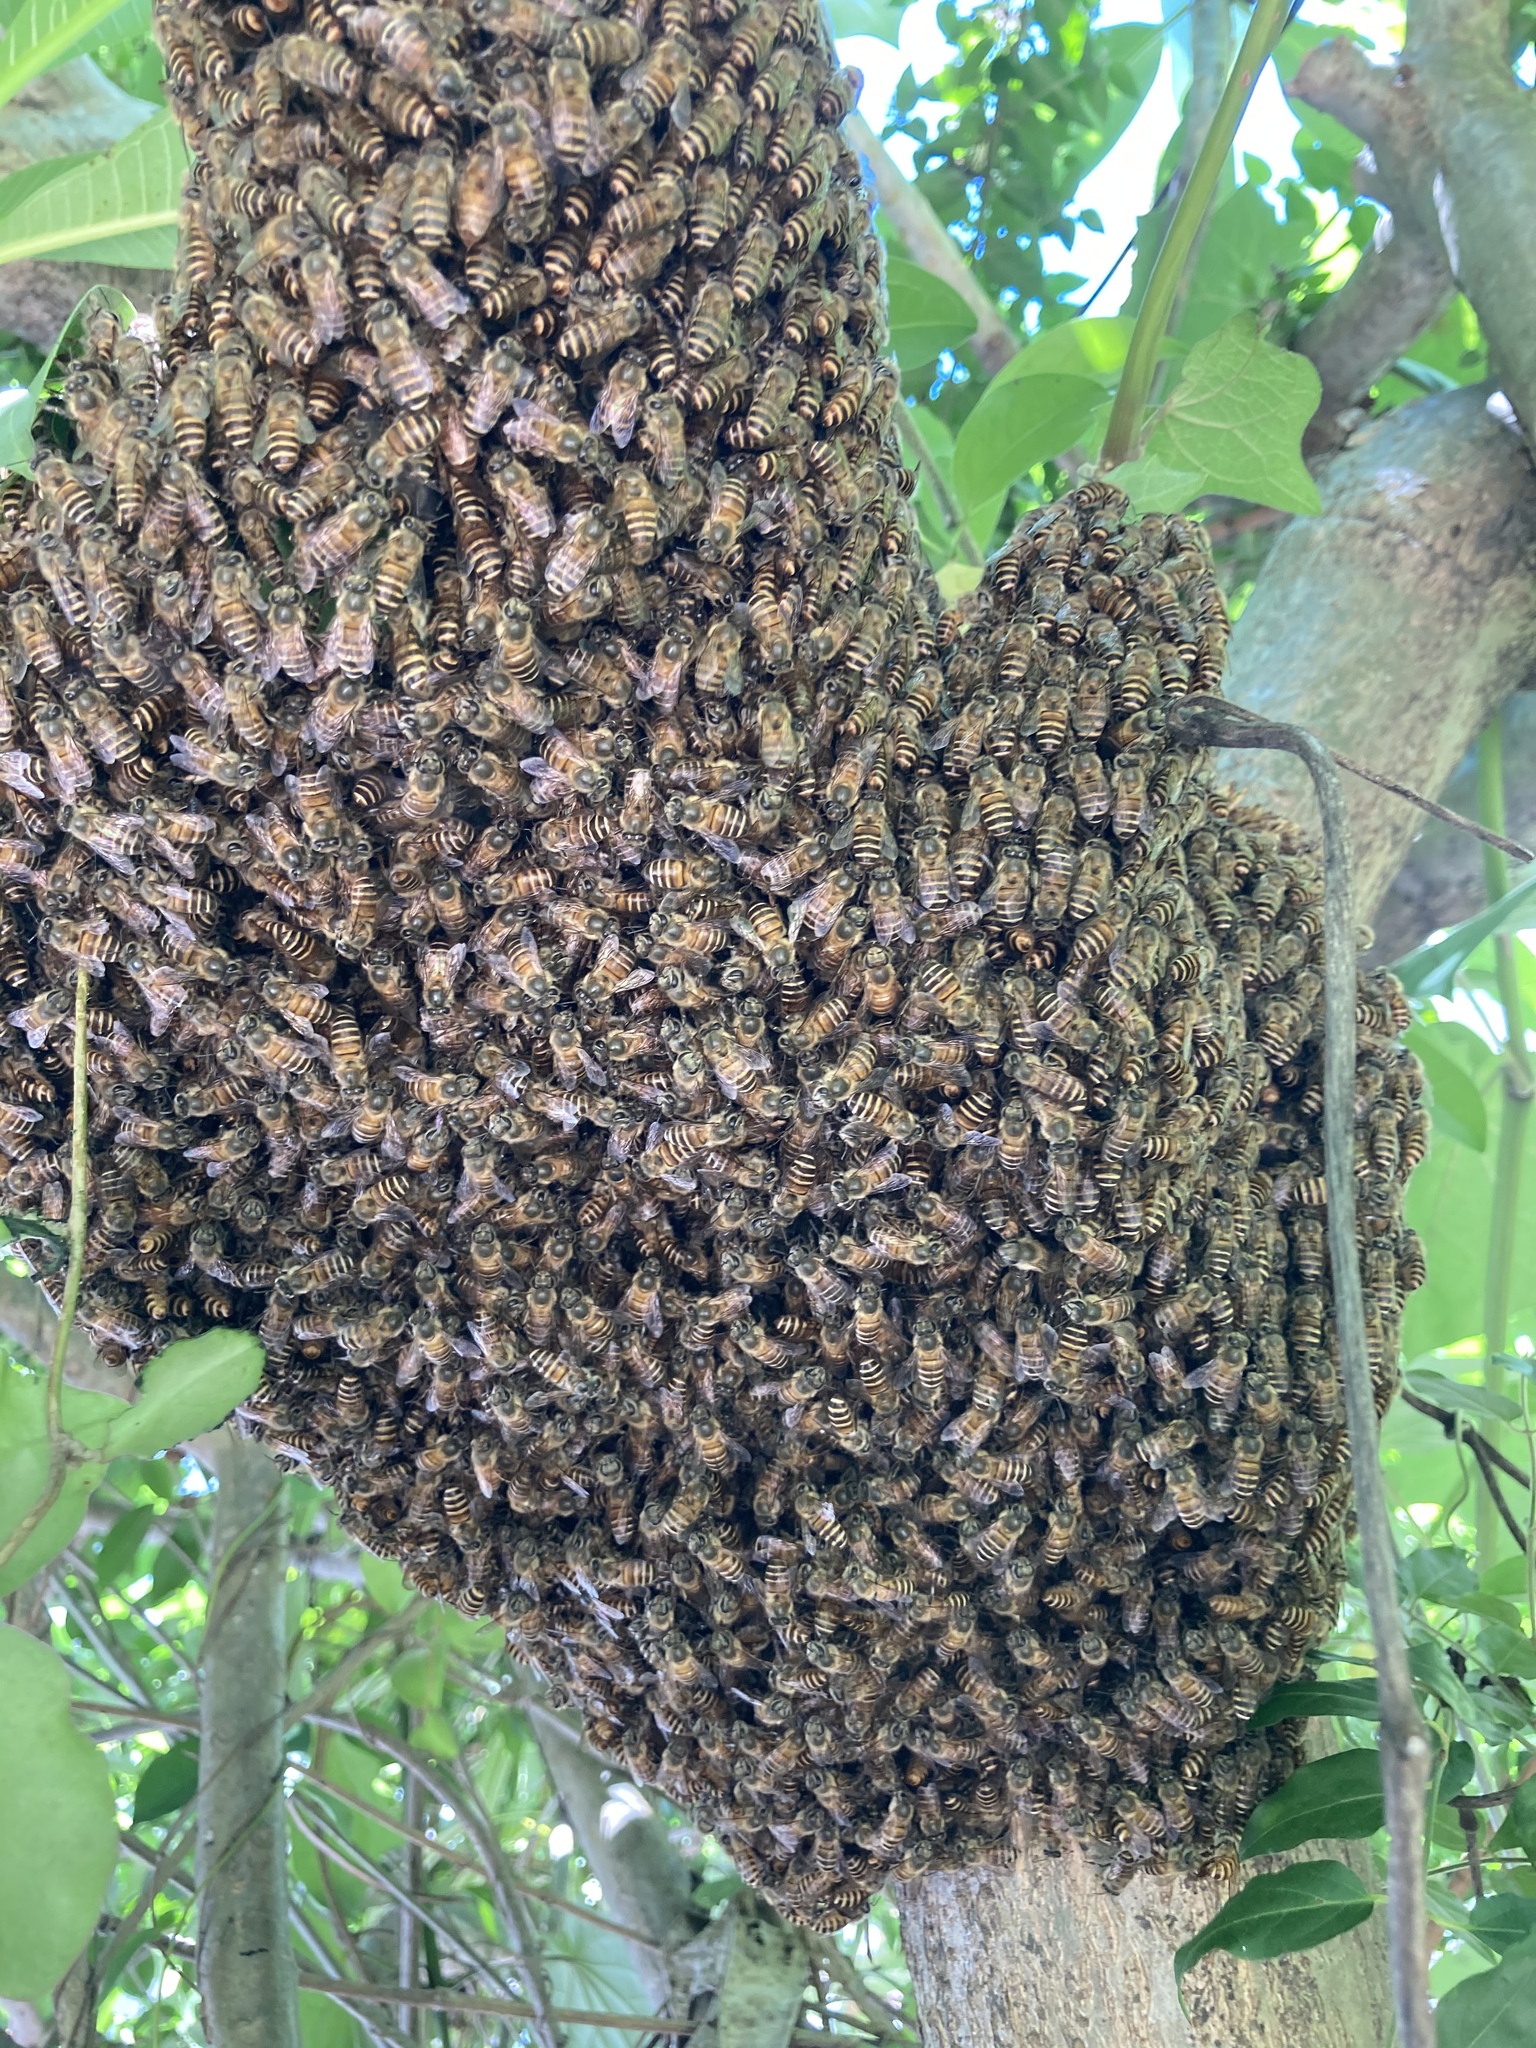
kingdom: Animalia
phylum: Arthropoda
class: Insecta
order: Hymenoptera
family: Apidae
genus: Apis
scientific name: Apis mellifera
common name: Honey bee
